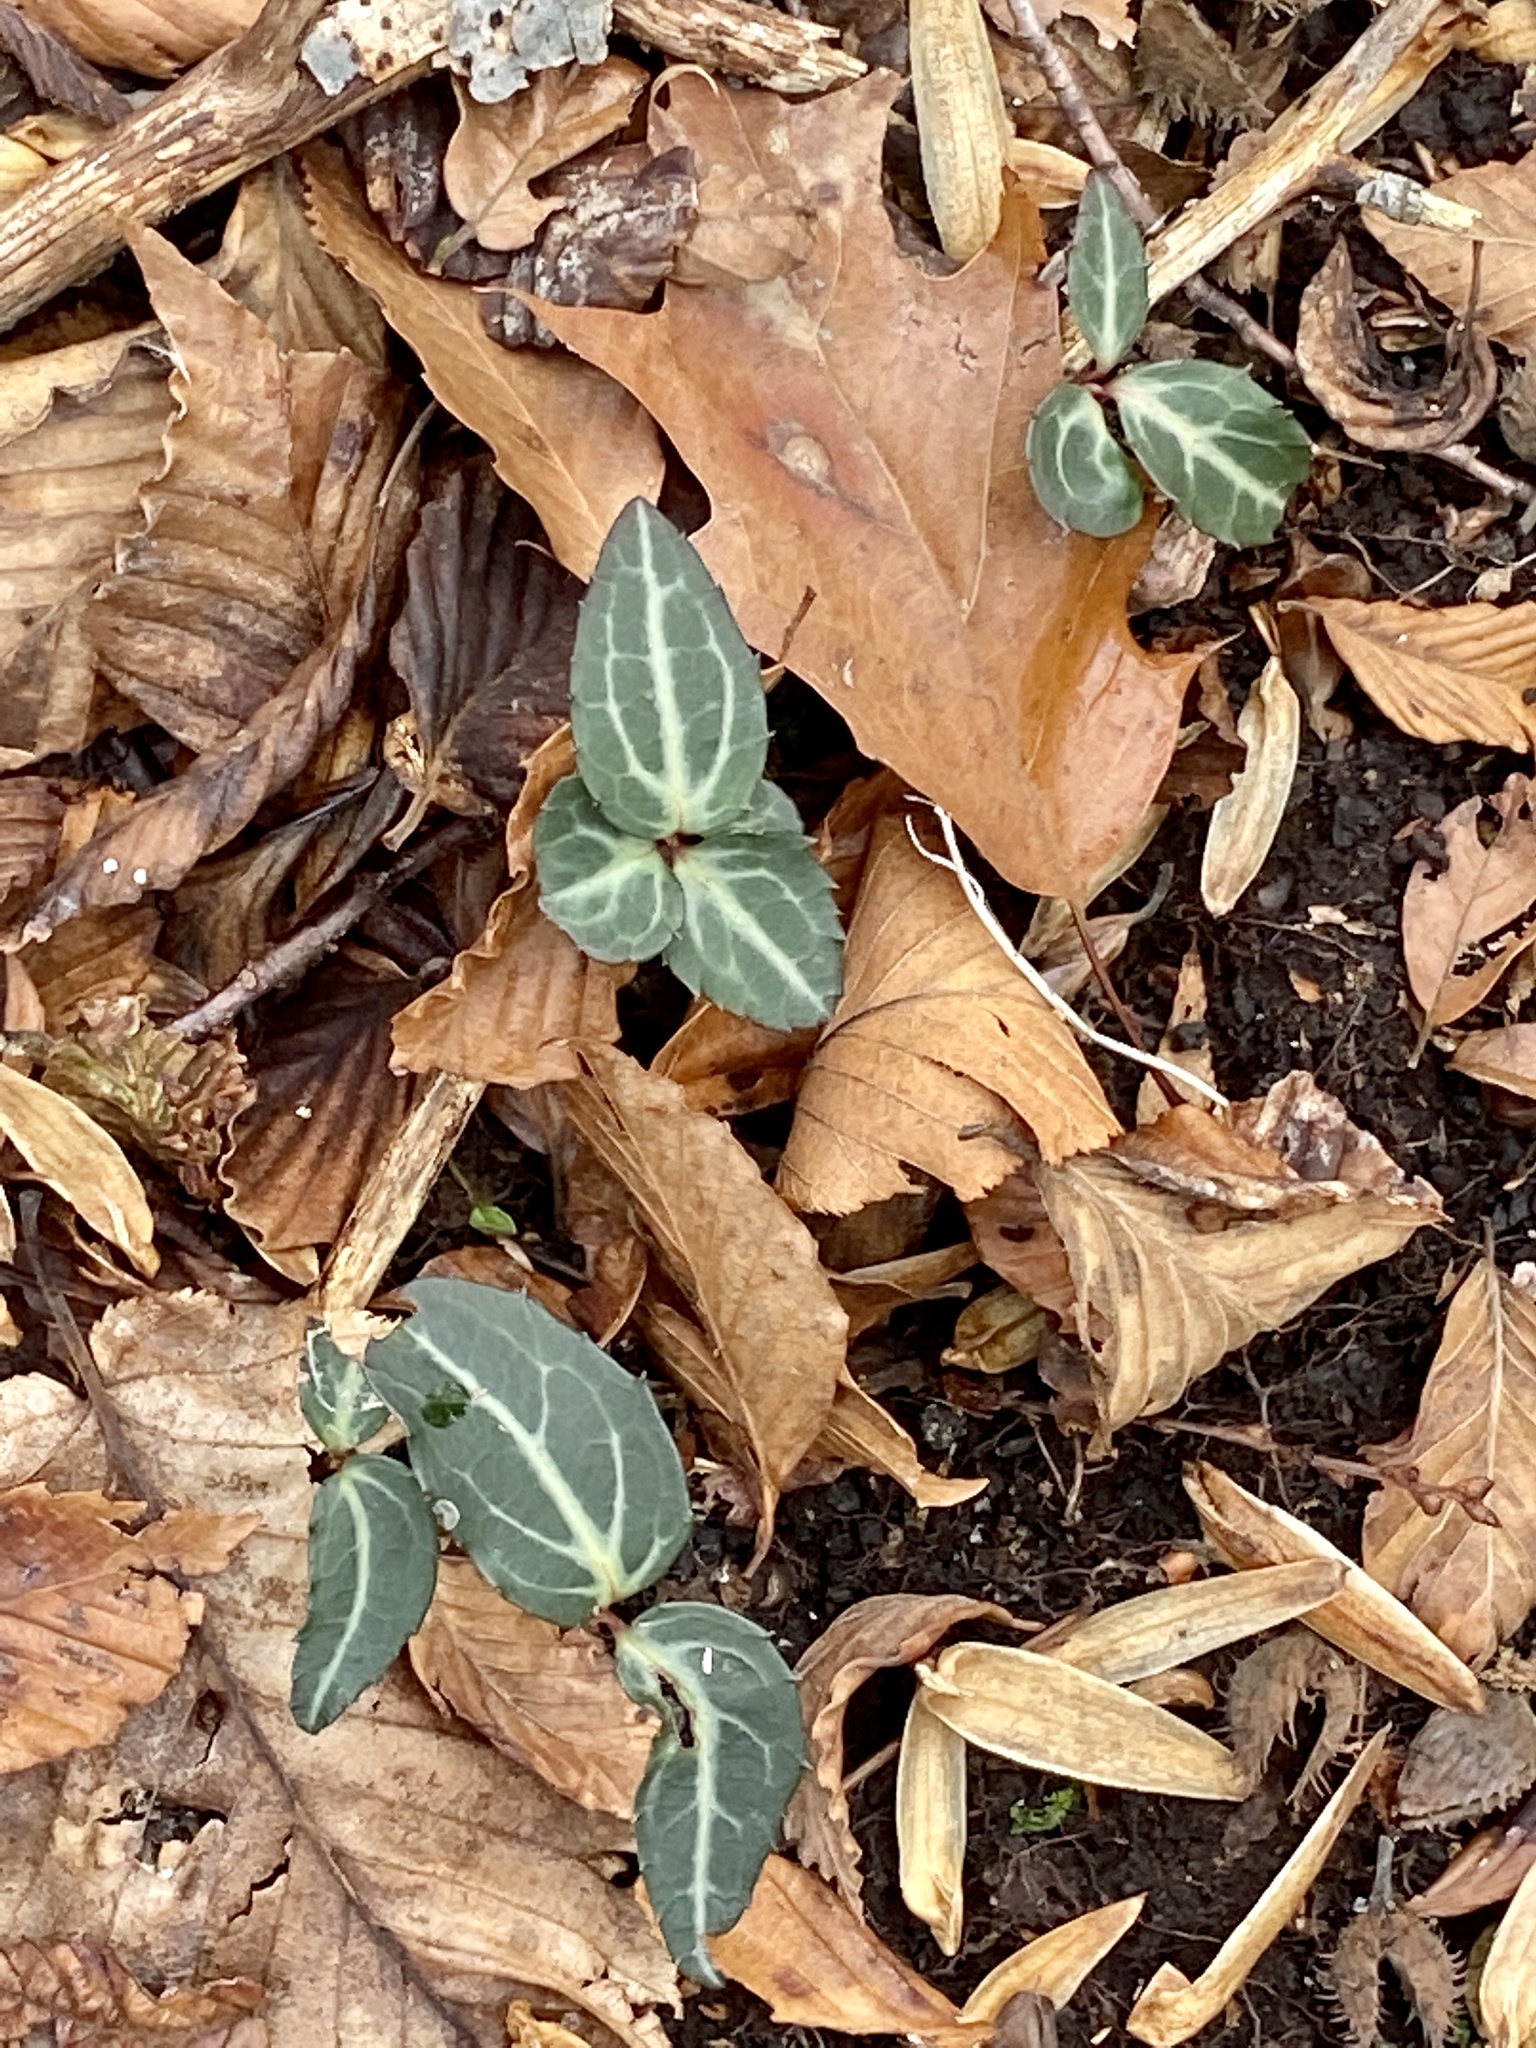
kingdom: Plantae
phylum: Tracheophyta
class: Magnoliopsida
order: Ericales
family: Ericaceae
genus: Chimaphila
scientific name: Chimaphila maculata
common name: Spotted pipsissewa
